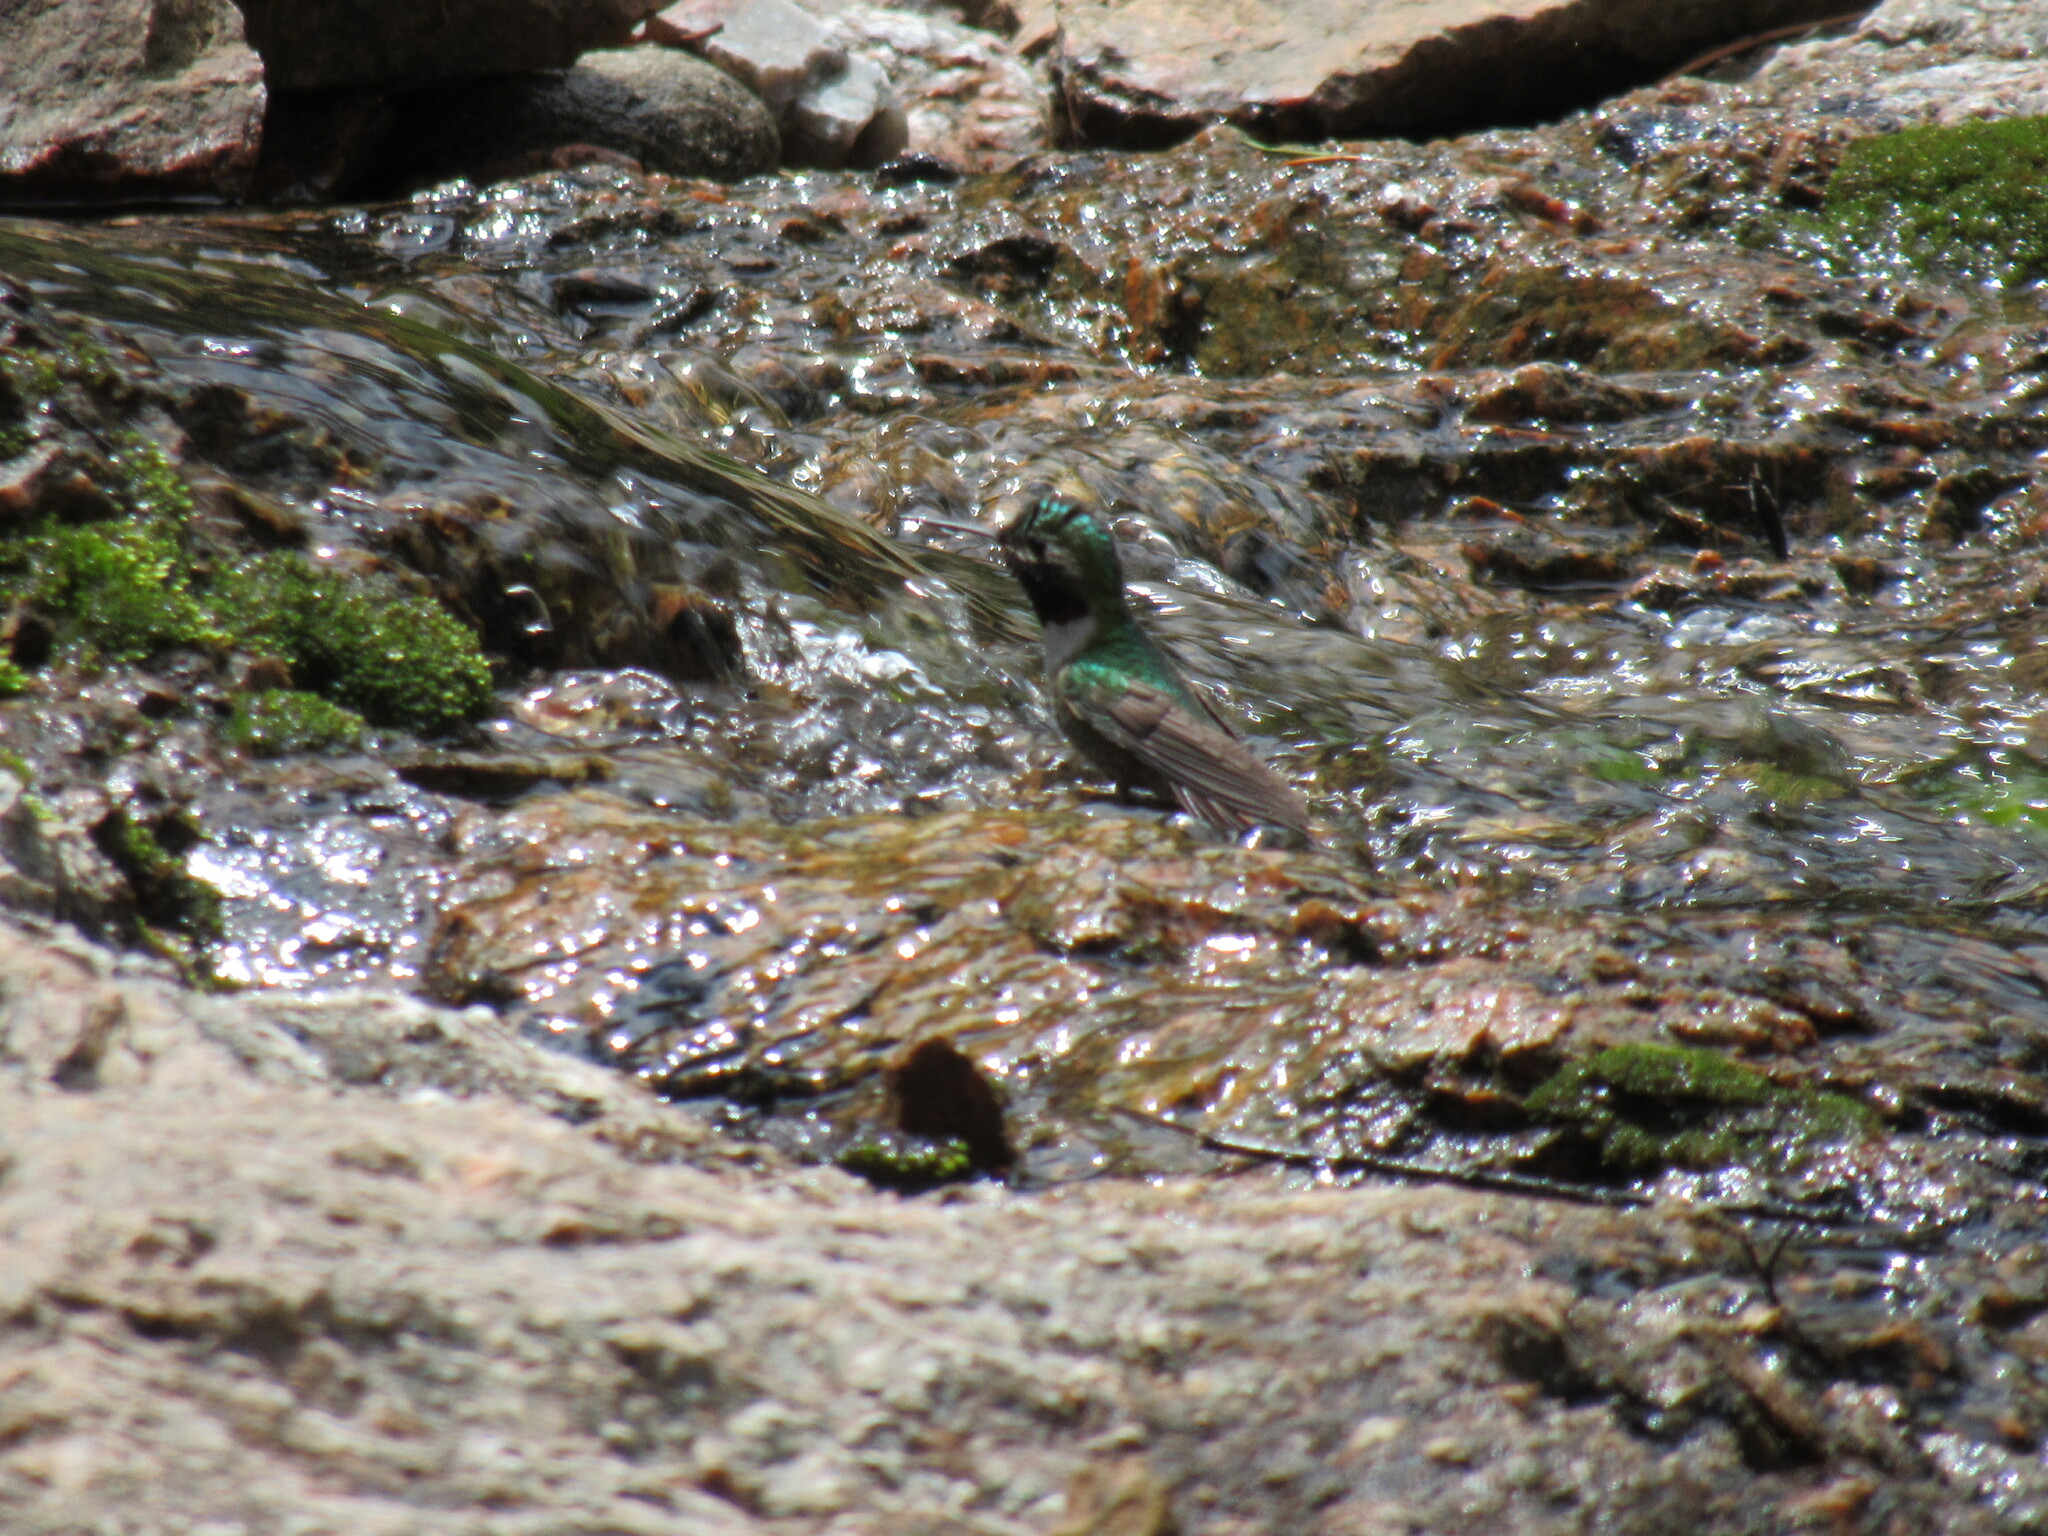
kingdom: Animalia
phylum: Chordata
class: Aves
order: Apodiformes
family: Trochilidae
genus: Selasphorus
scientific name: Selasphorus platycercus
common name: Broad-tailed hummingbird
